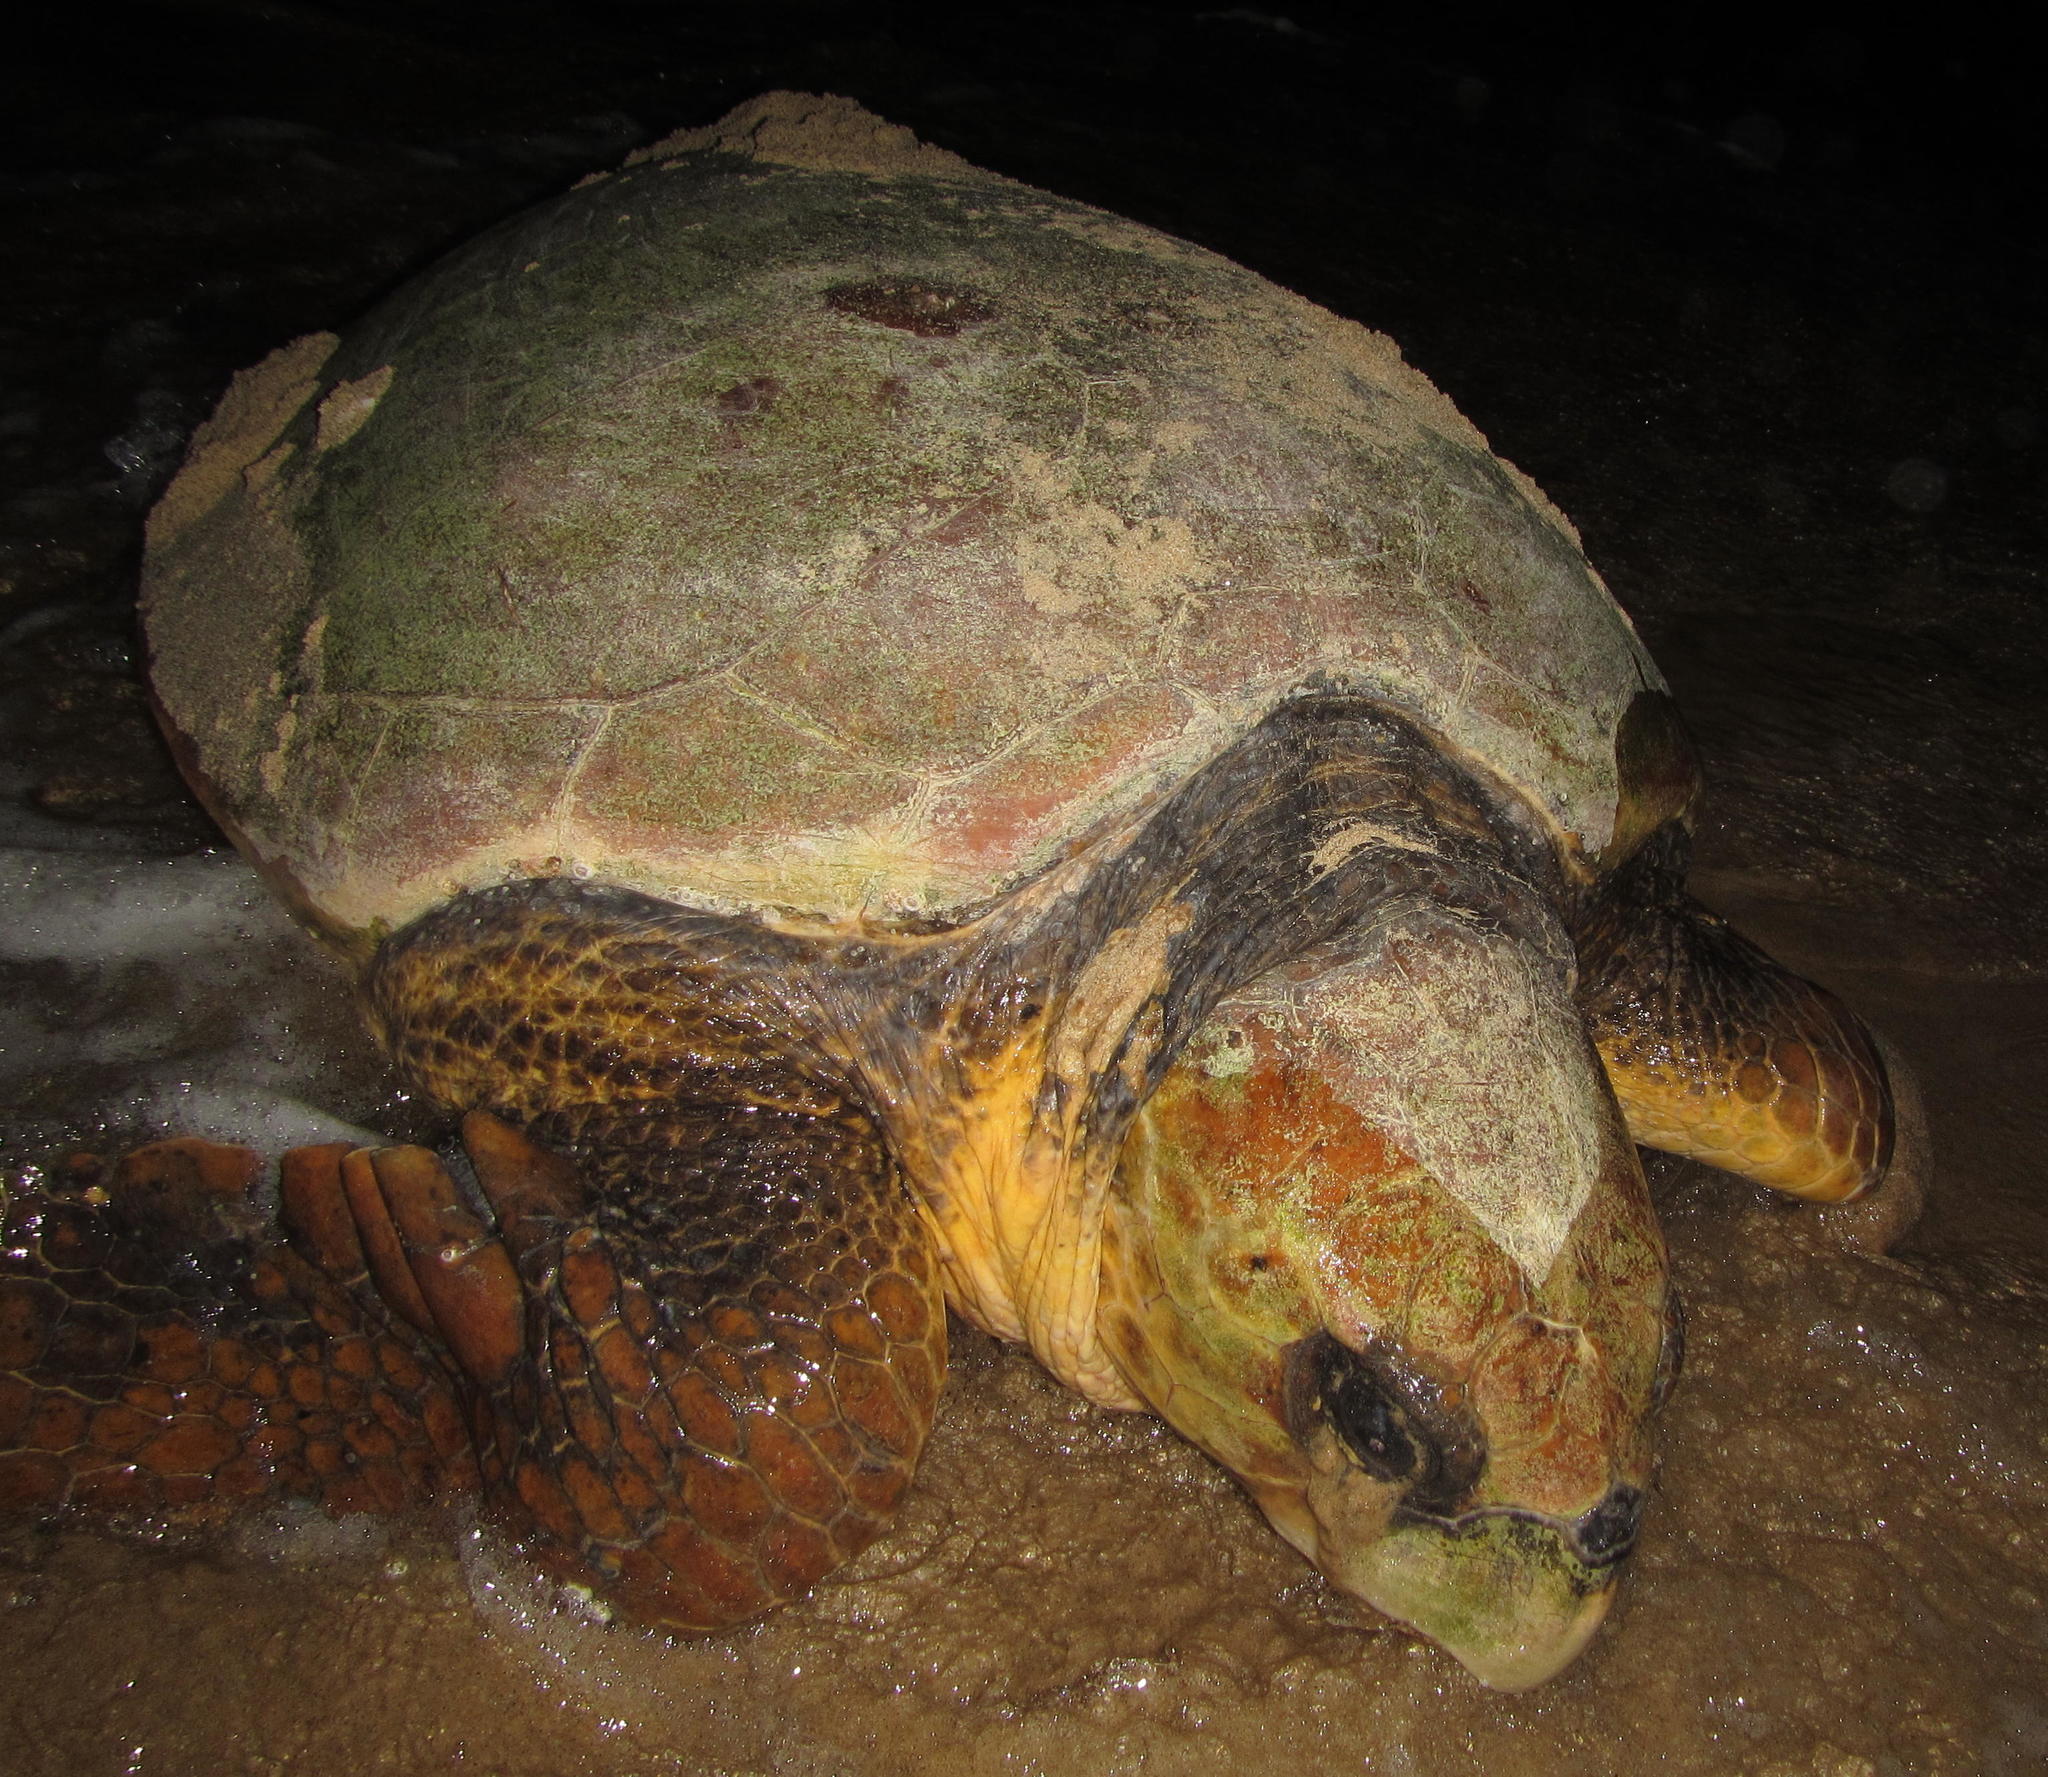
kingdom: Animalia
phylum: Chordata
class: Testudines
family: Cheloniidae
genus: Caretta
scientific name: Caretta caretta
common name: Loggerhead sea turtle
